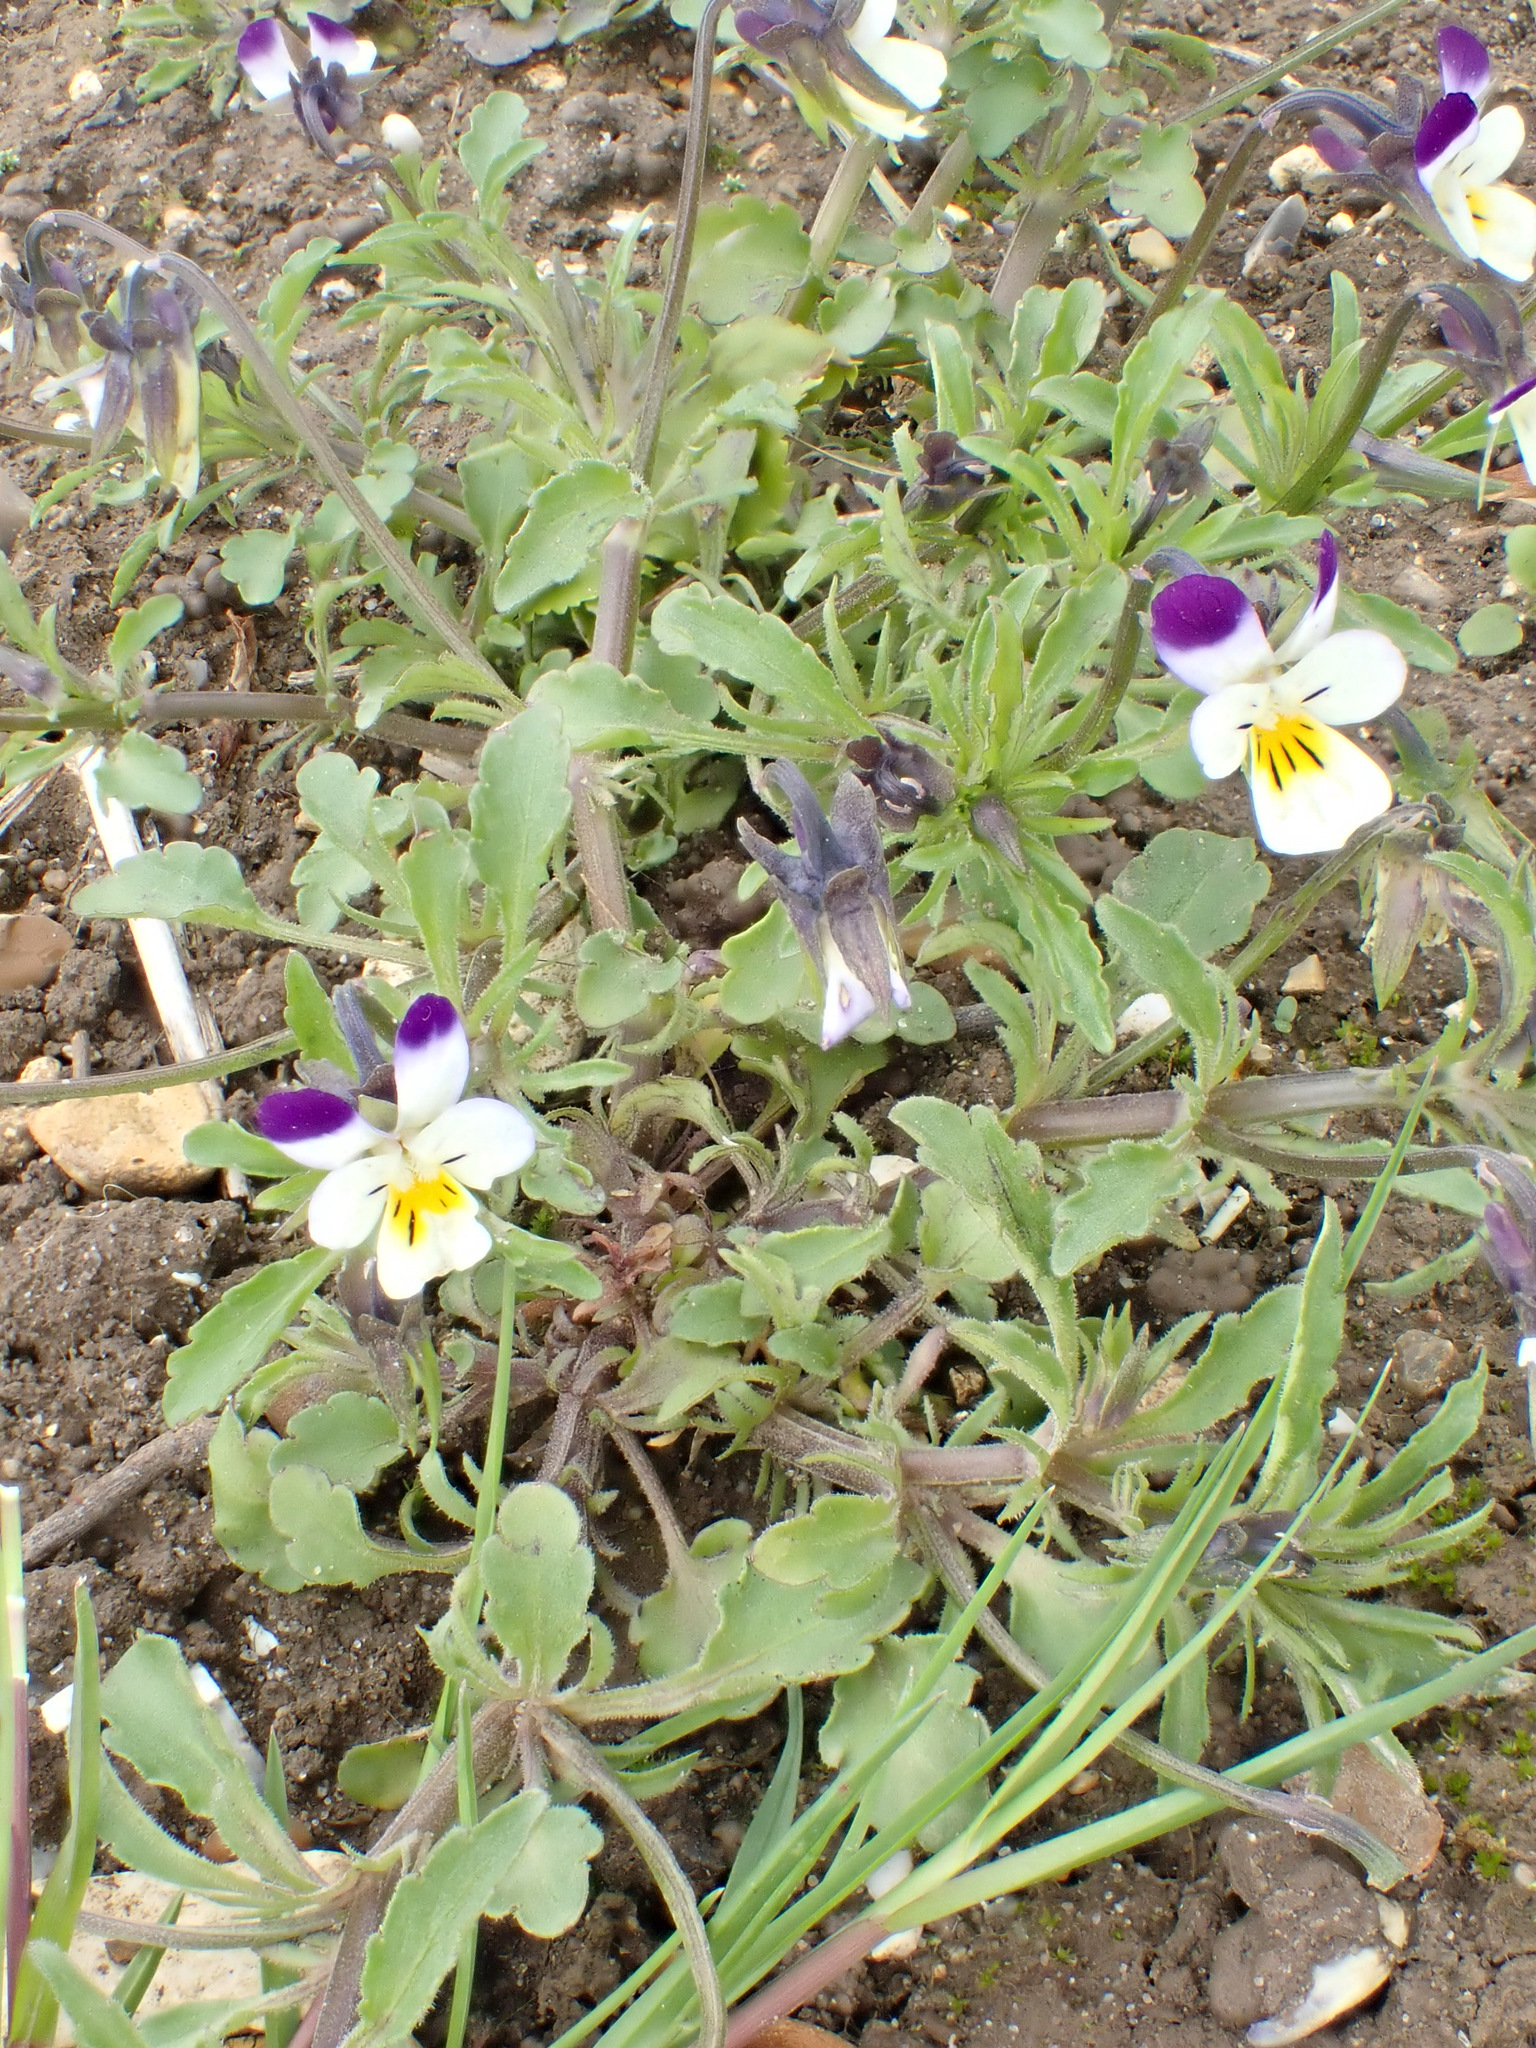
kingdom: Plantae
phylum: Tracheophyta
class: Magnoliopsida
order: Malpighiales
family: Violaceae
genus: Viola
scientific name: Viola arvensis
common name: Field pansy
